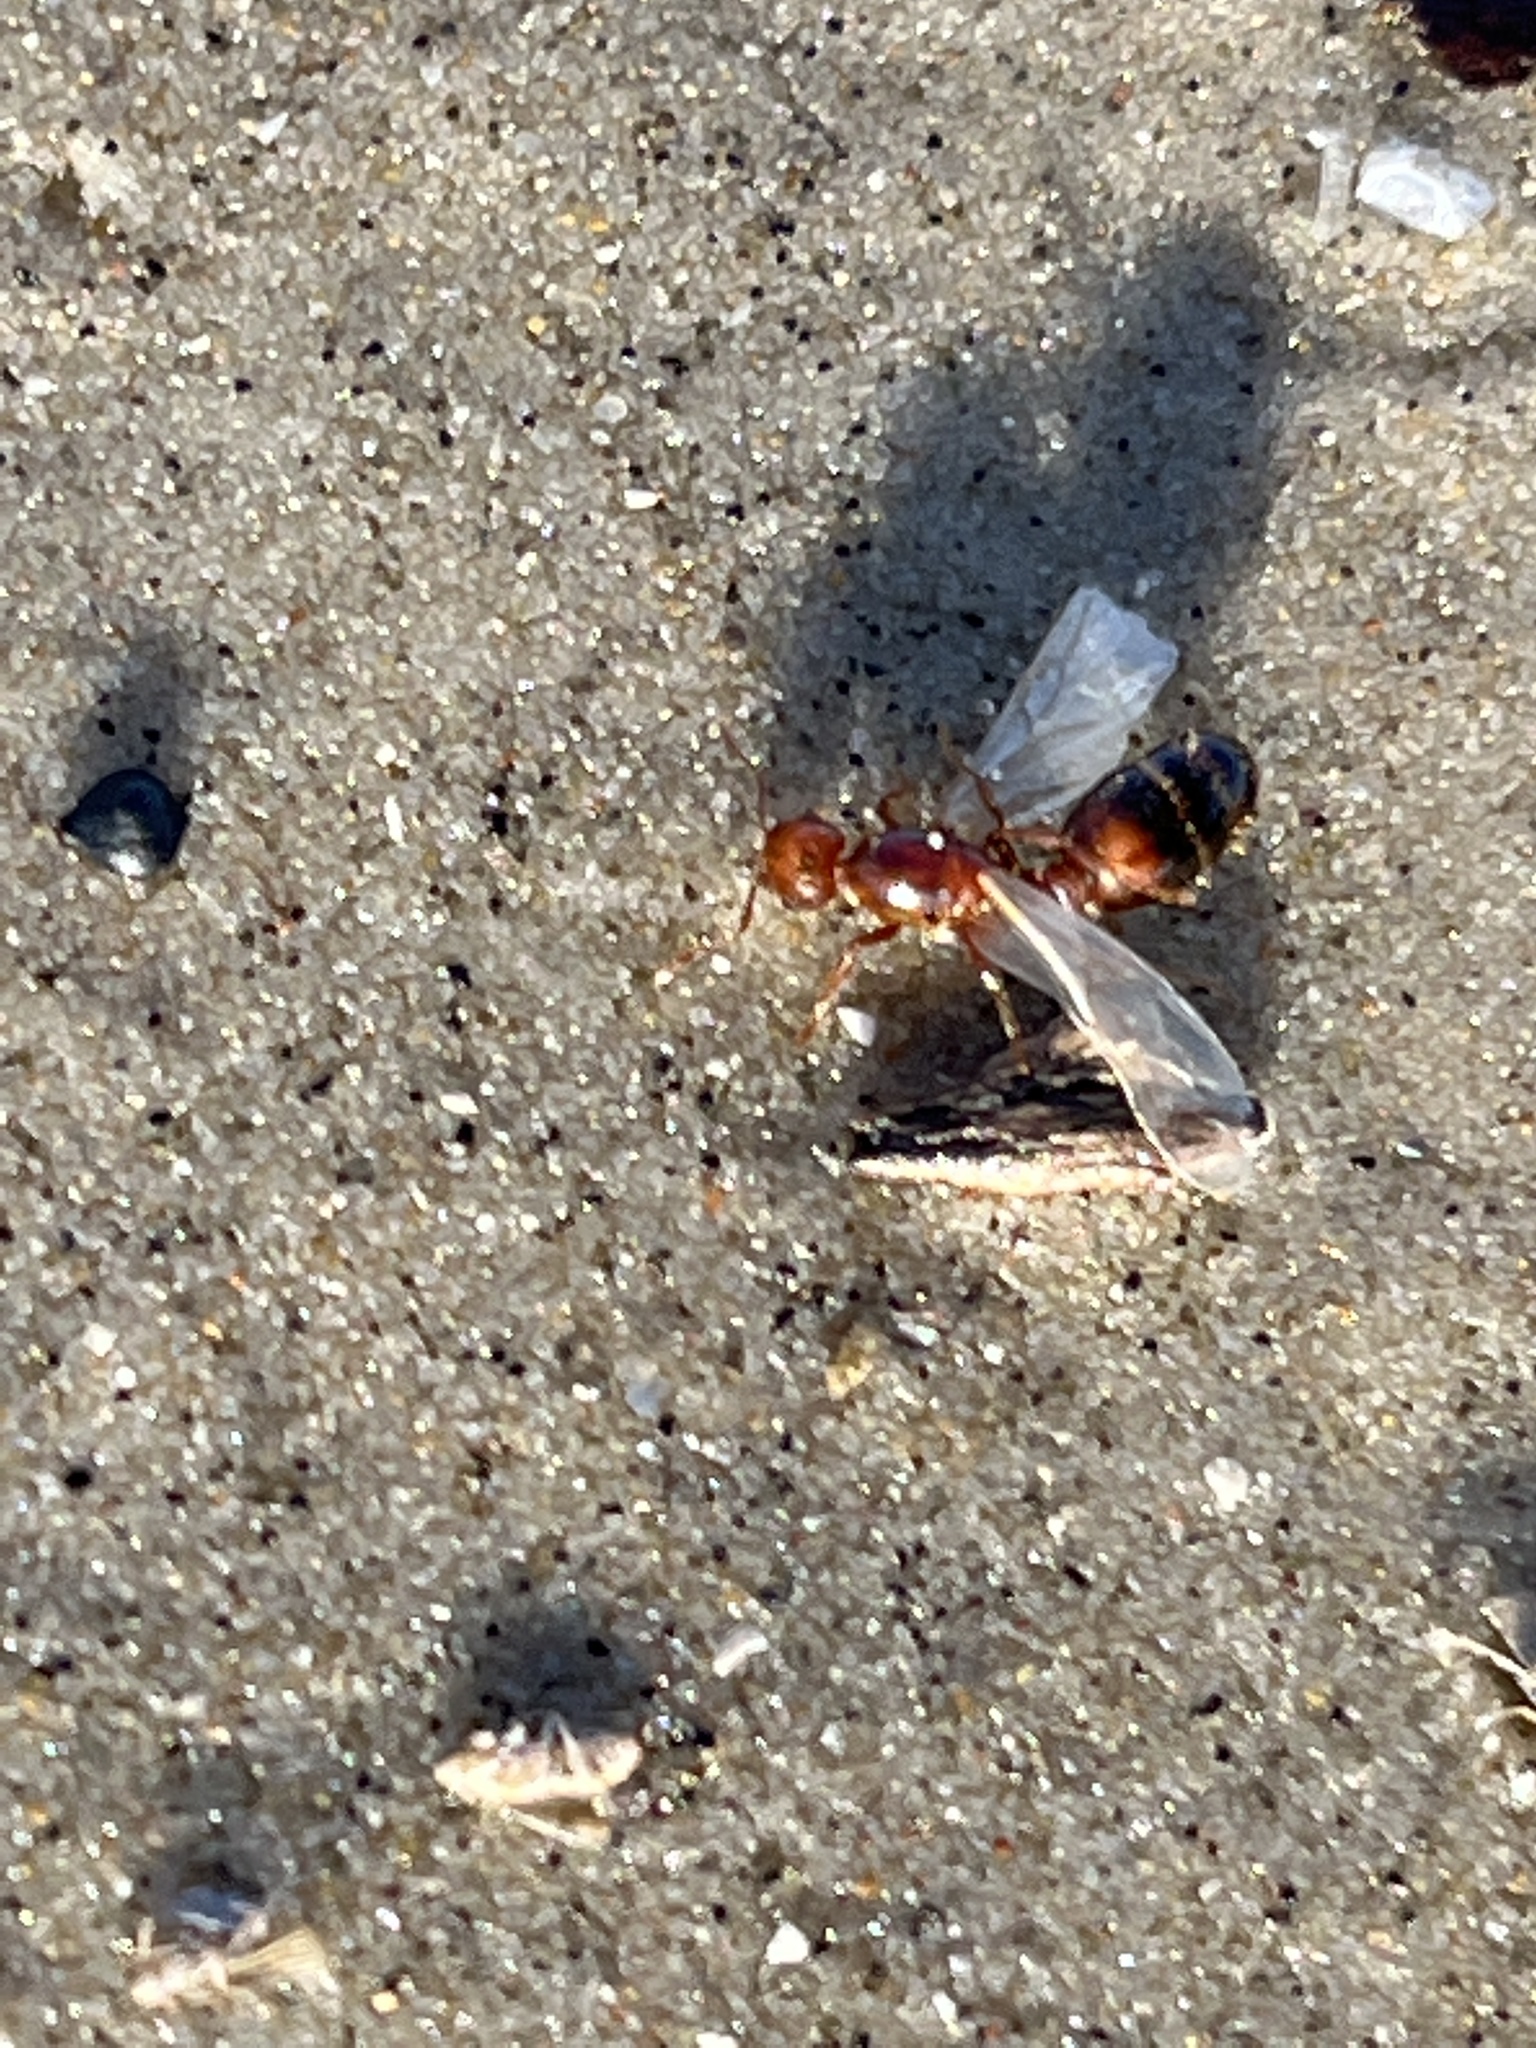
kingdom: Animalia
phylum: Arthropoda
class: Insecta
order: Hymenoptera
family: Formicidae
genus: Solenopsis
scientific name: Solenopsis invicta
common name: Red imported fire ant
